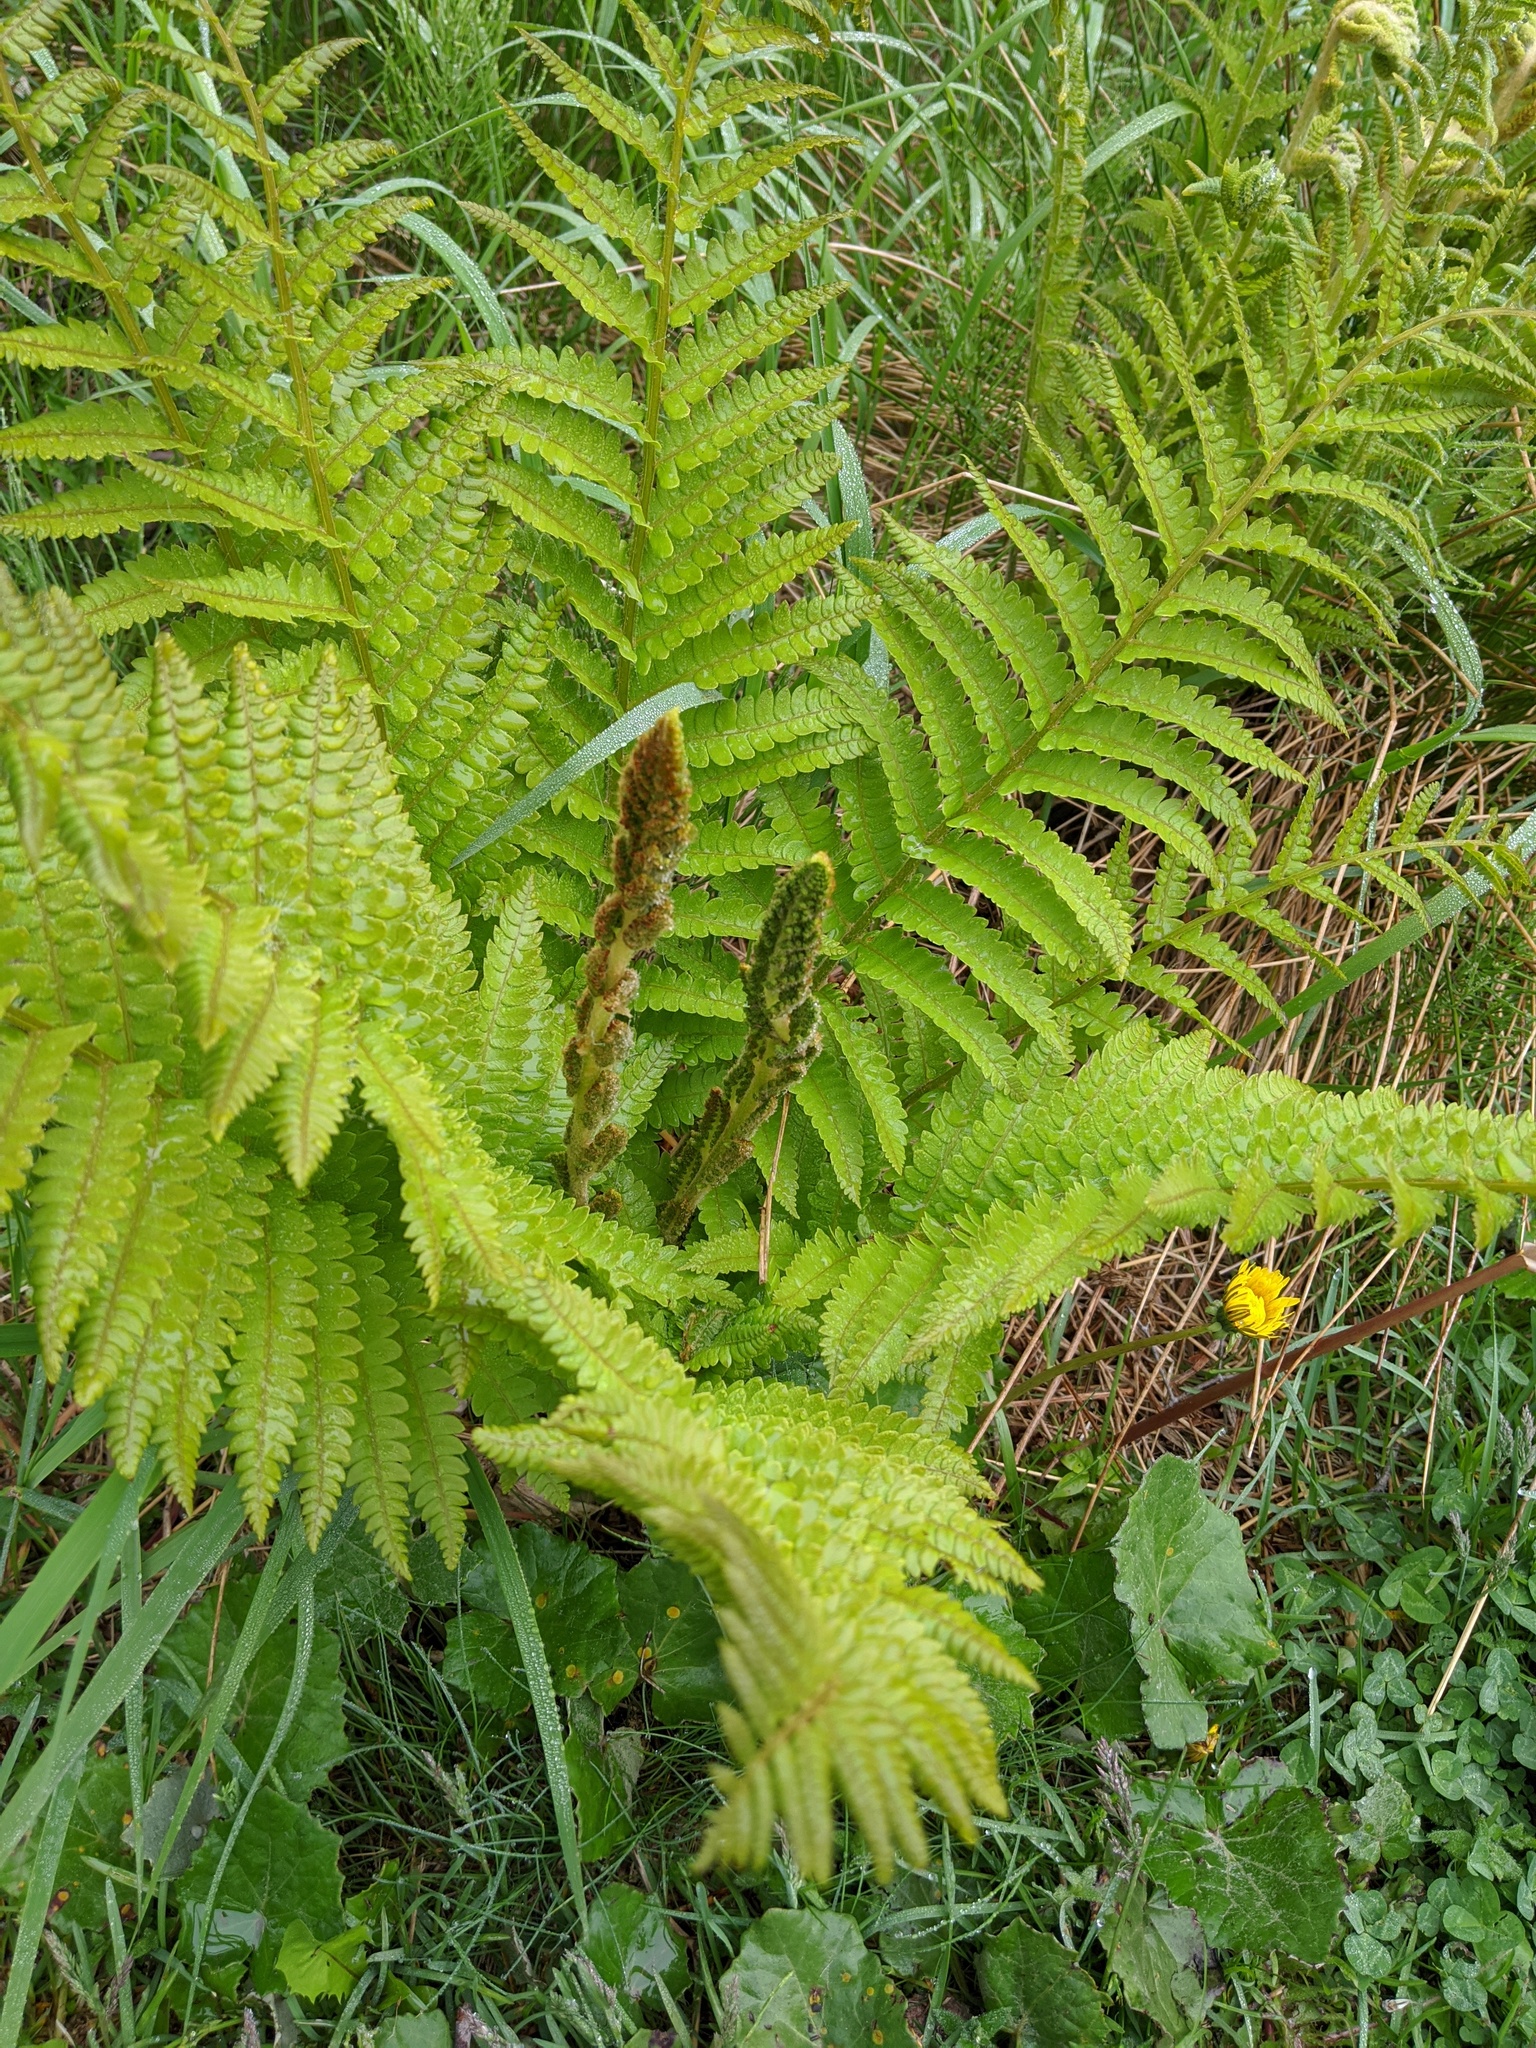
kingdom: Plantae
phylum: Tracheophyta
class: Polypodiopsida
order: Osmundales
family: Osmundaceae
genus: Osmundastrum
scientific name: Osmundastrum cinnamomeum
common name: Cinnamon fern
